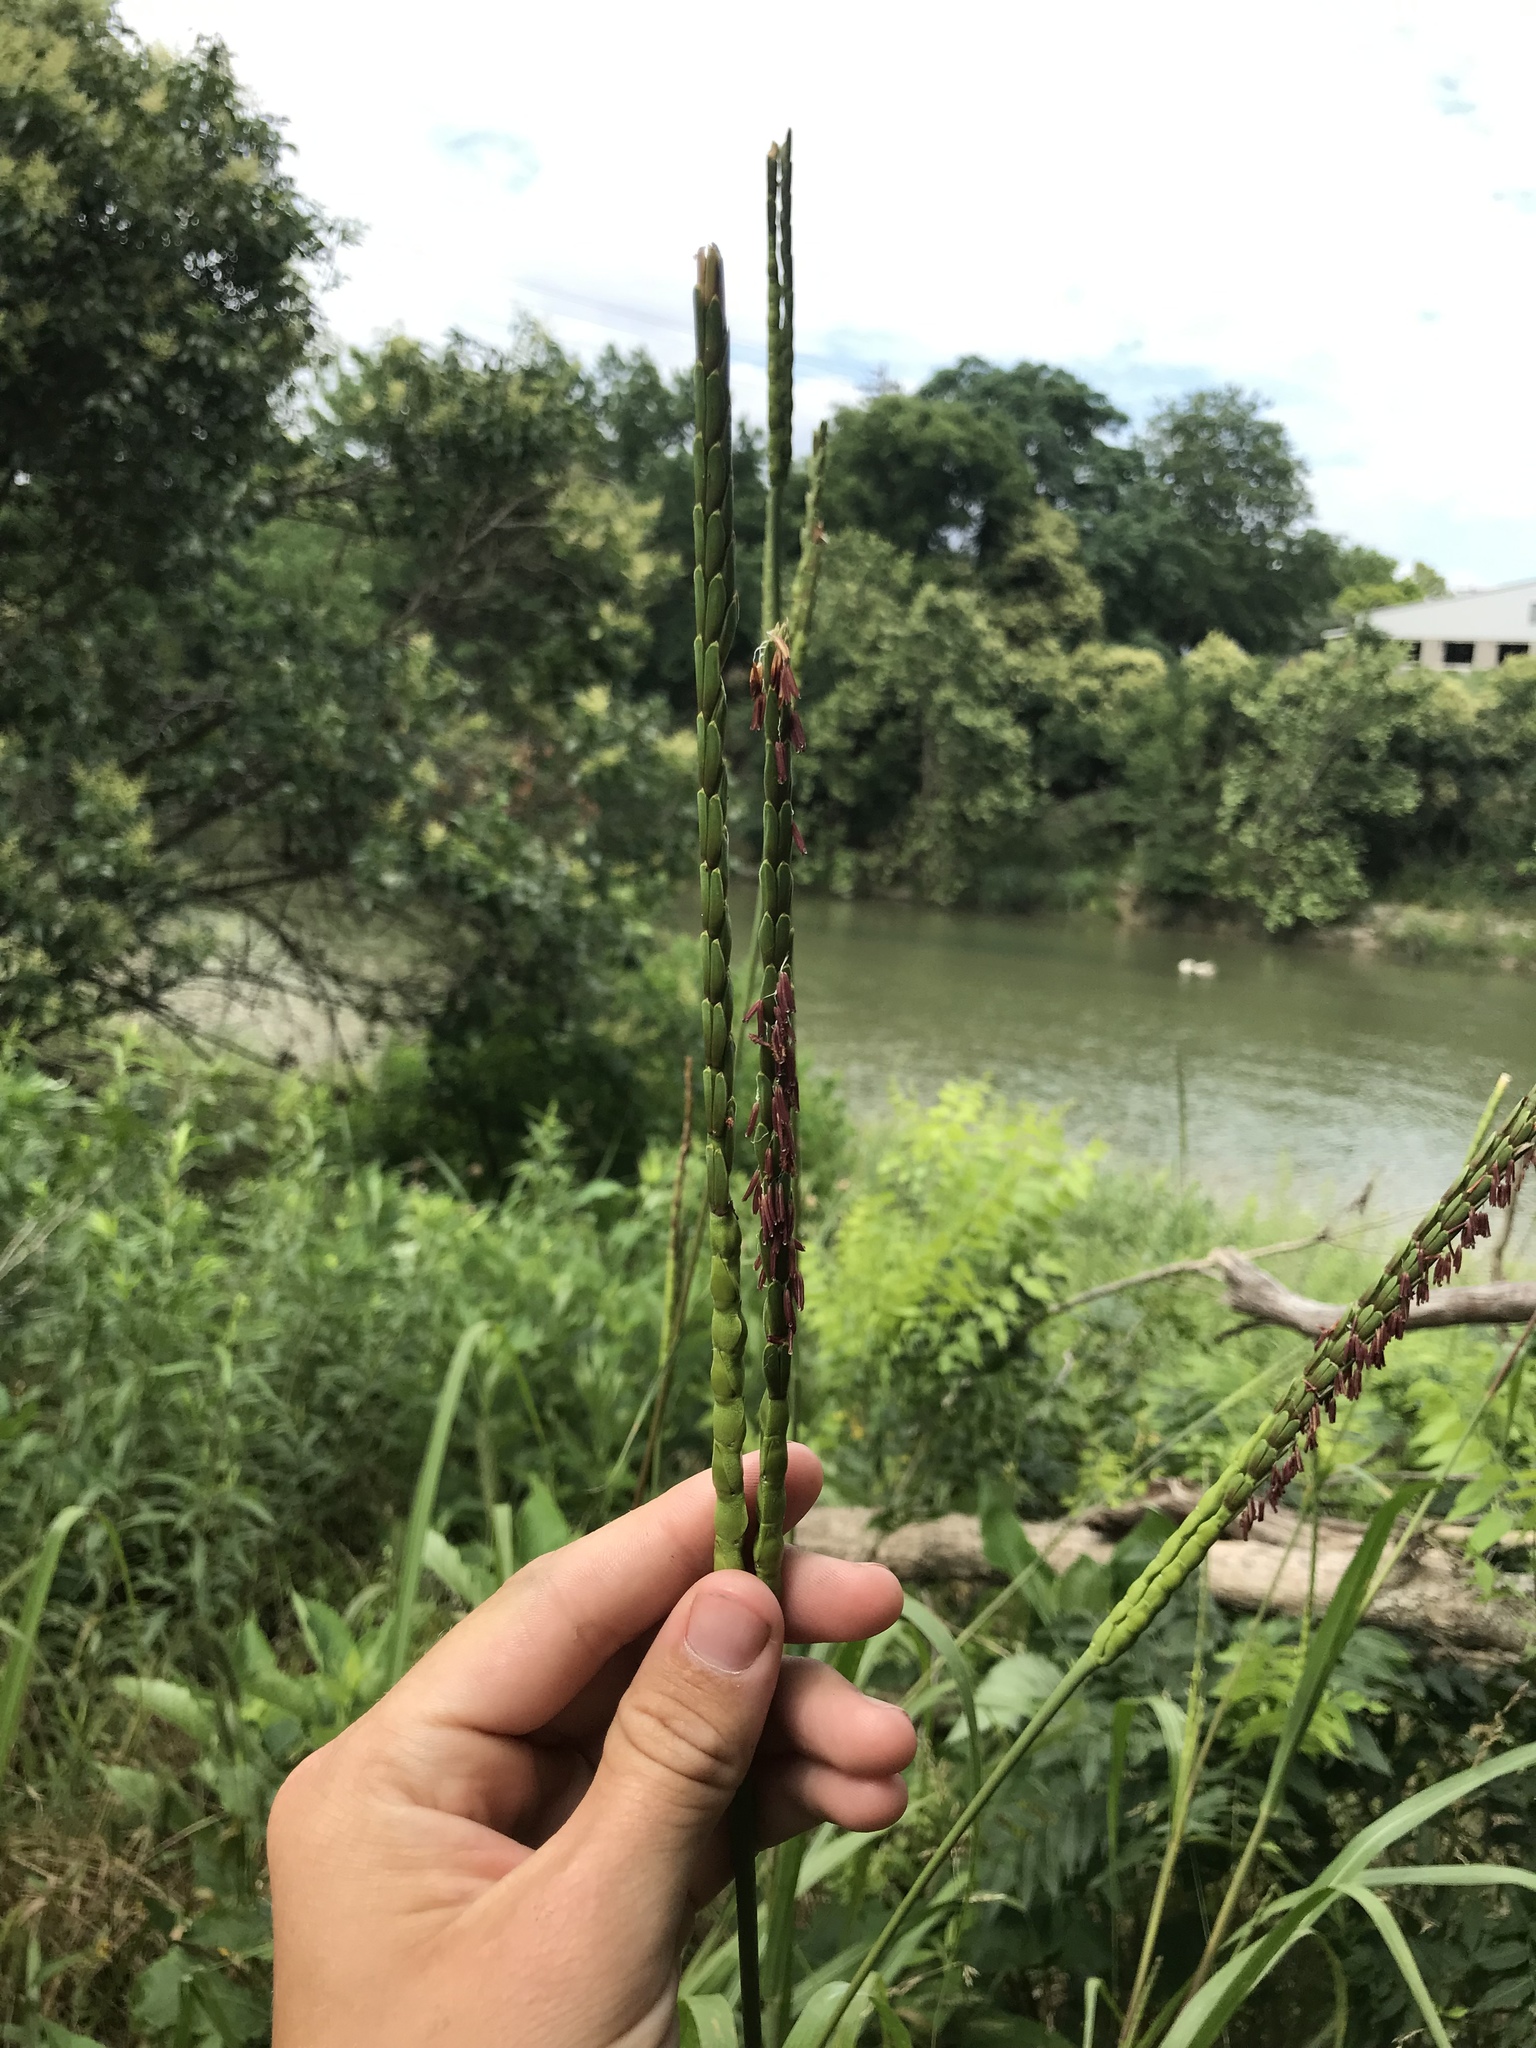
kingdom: Plantae
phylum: Tracheophyta
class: Liliopsida
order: Poales
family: Poaceae
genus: Tripsacum
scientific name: Tripsacum dactyloides
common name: Buffalo-grass
